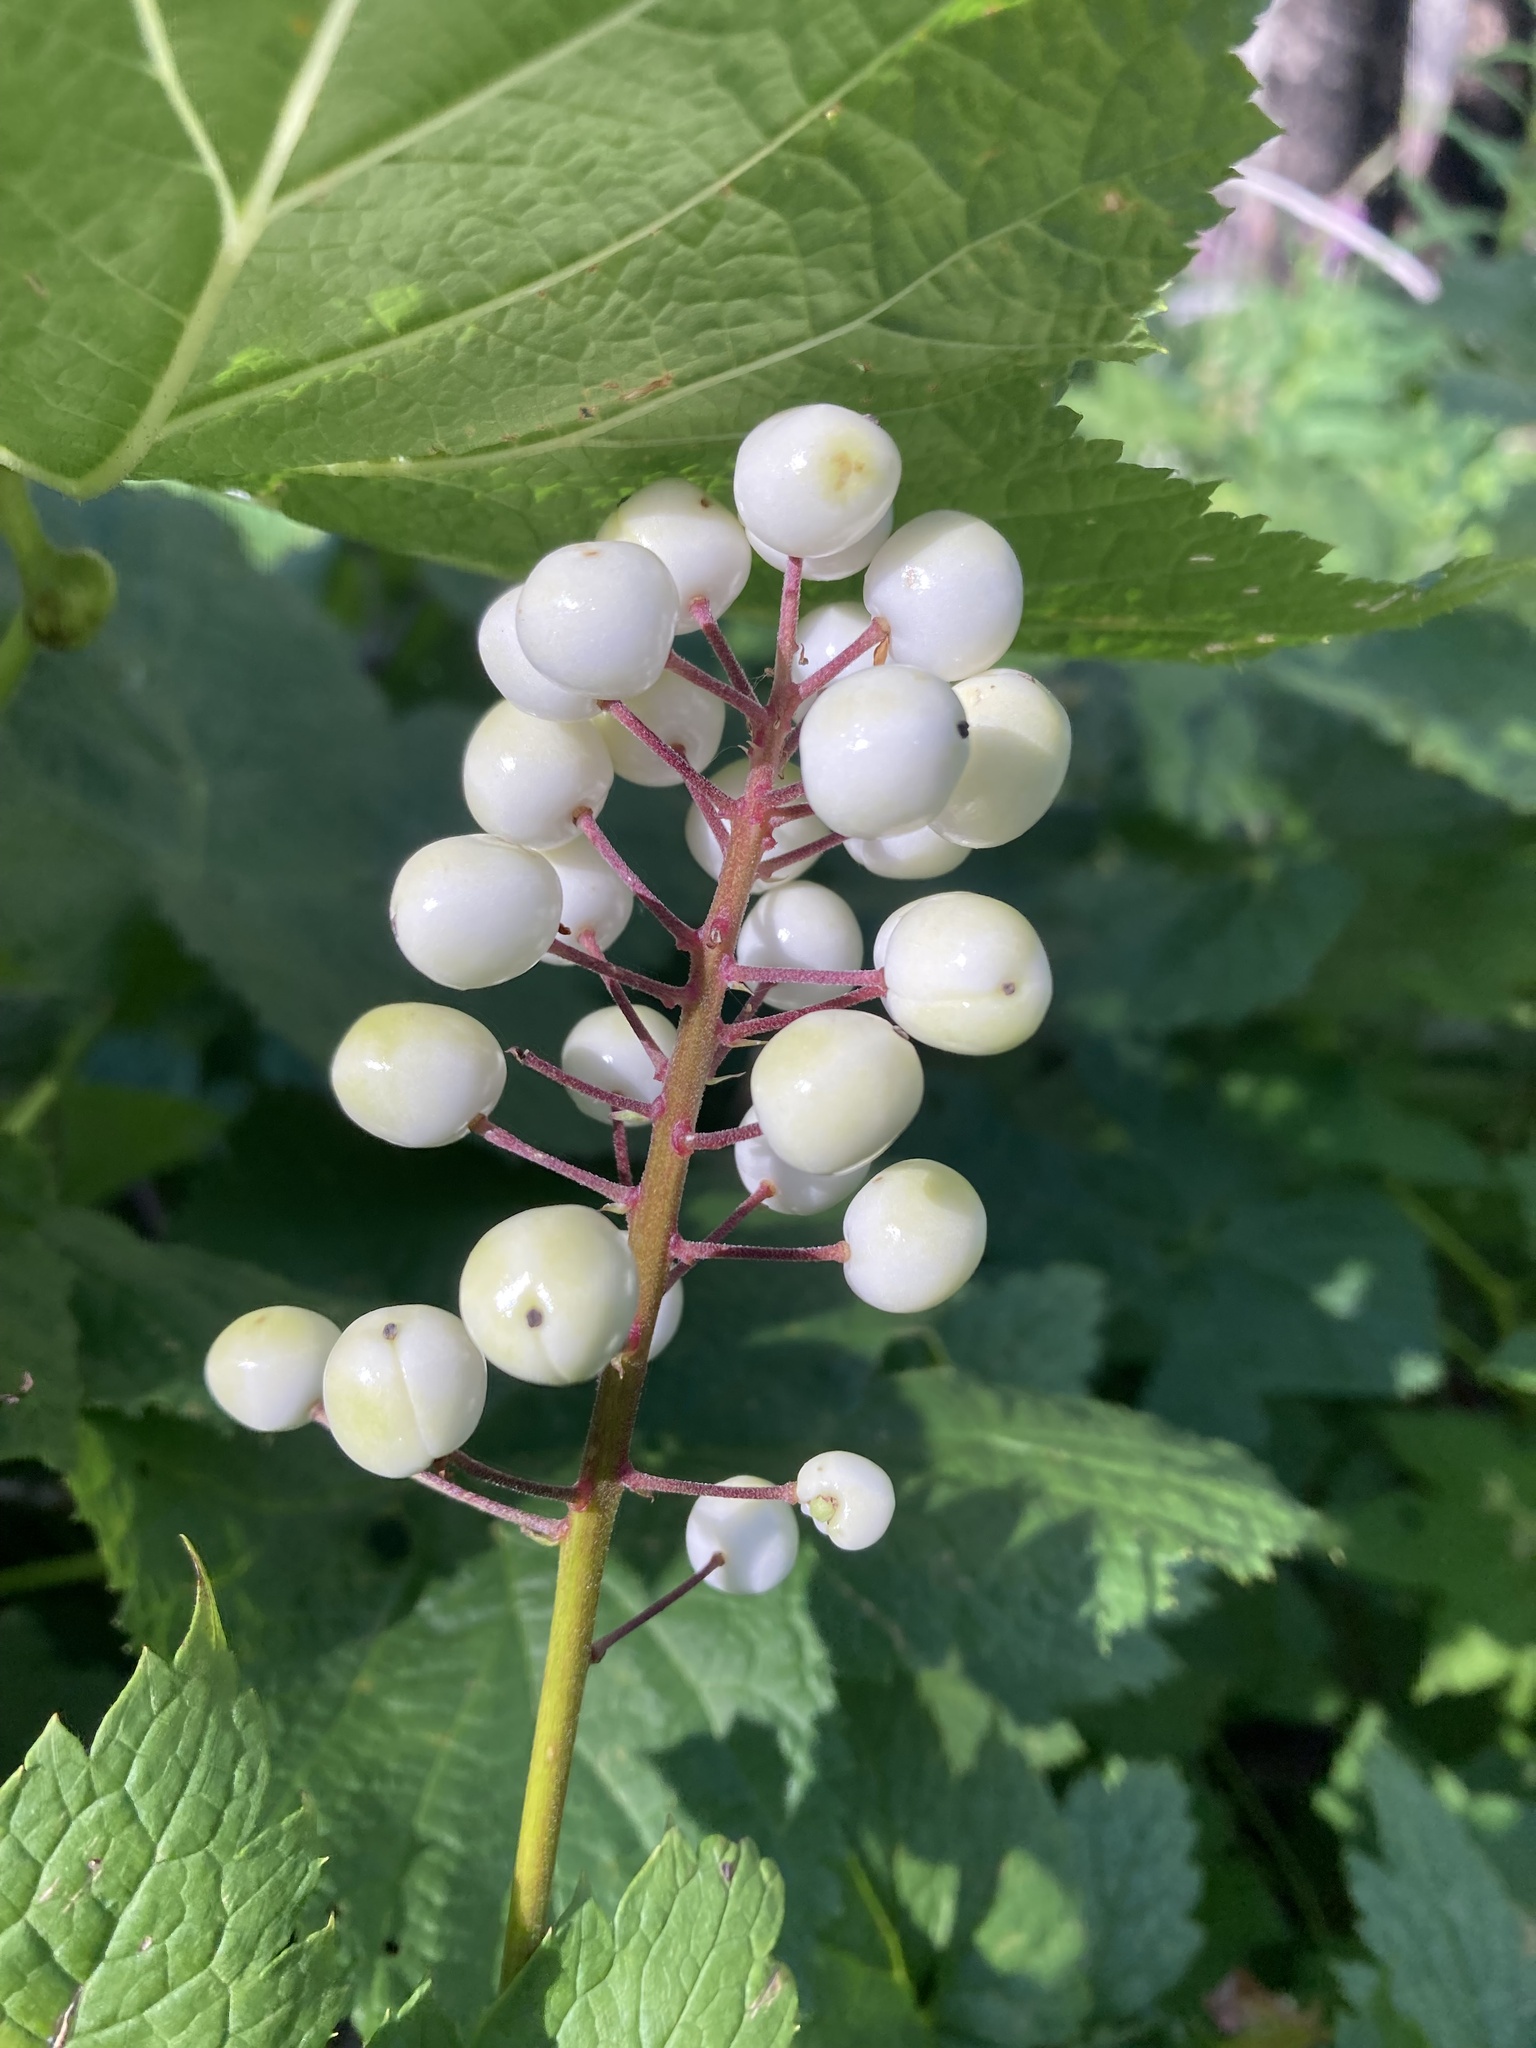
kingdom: Plantae
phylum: Tracheophyta
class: Magnoliopsida
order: Ranunculales
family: Ranunculaceae
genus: Actaea
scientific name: Actaea rubra
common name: Red baneberry
